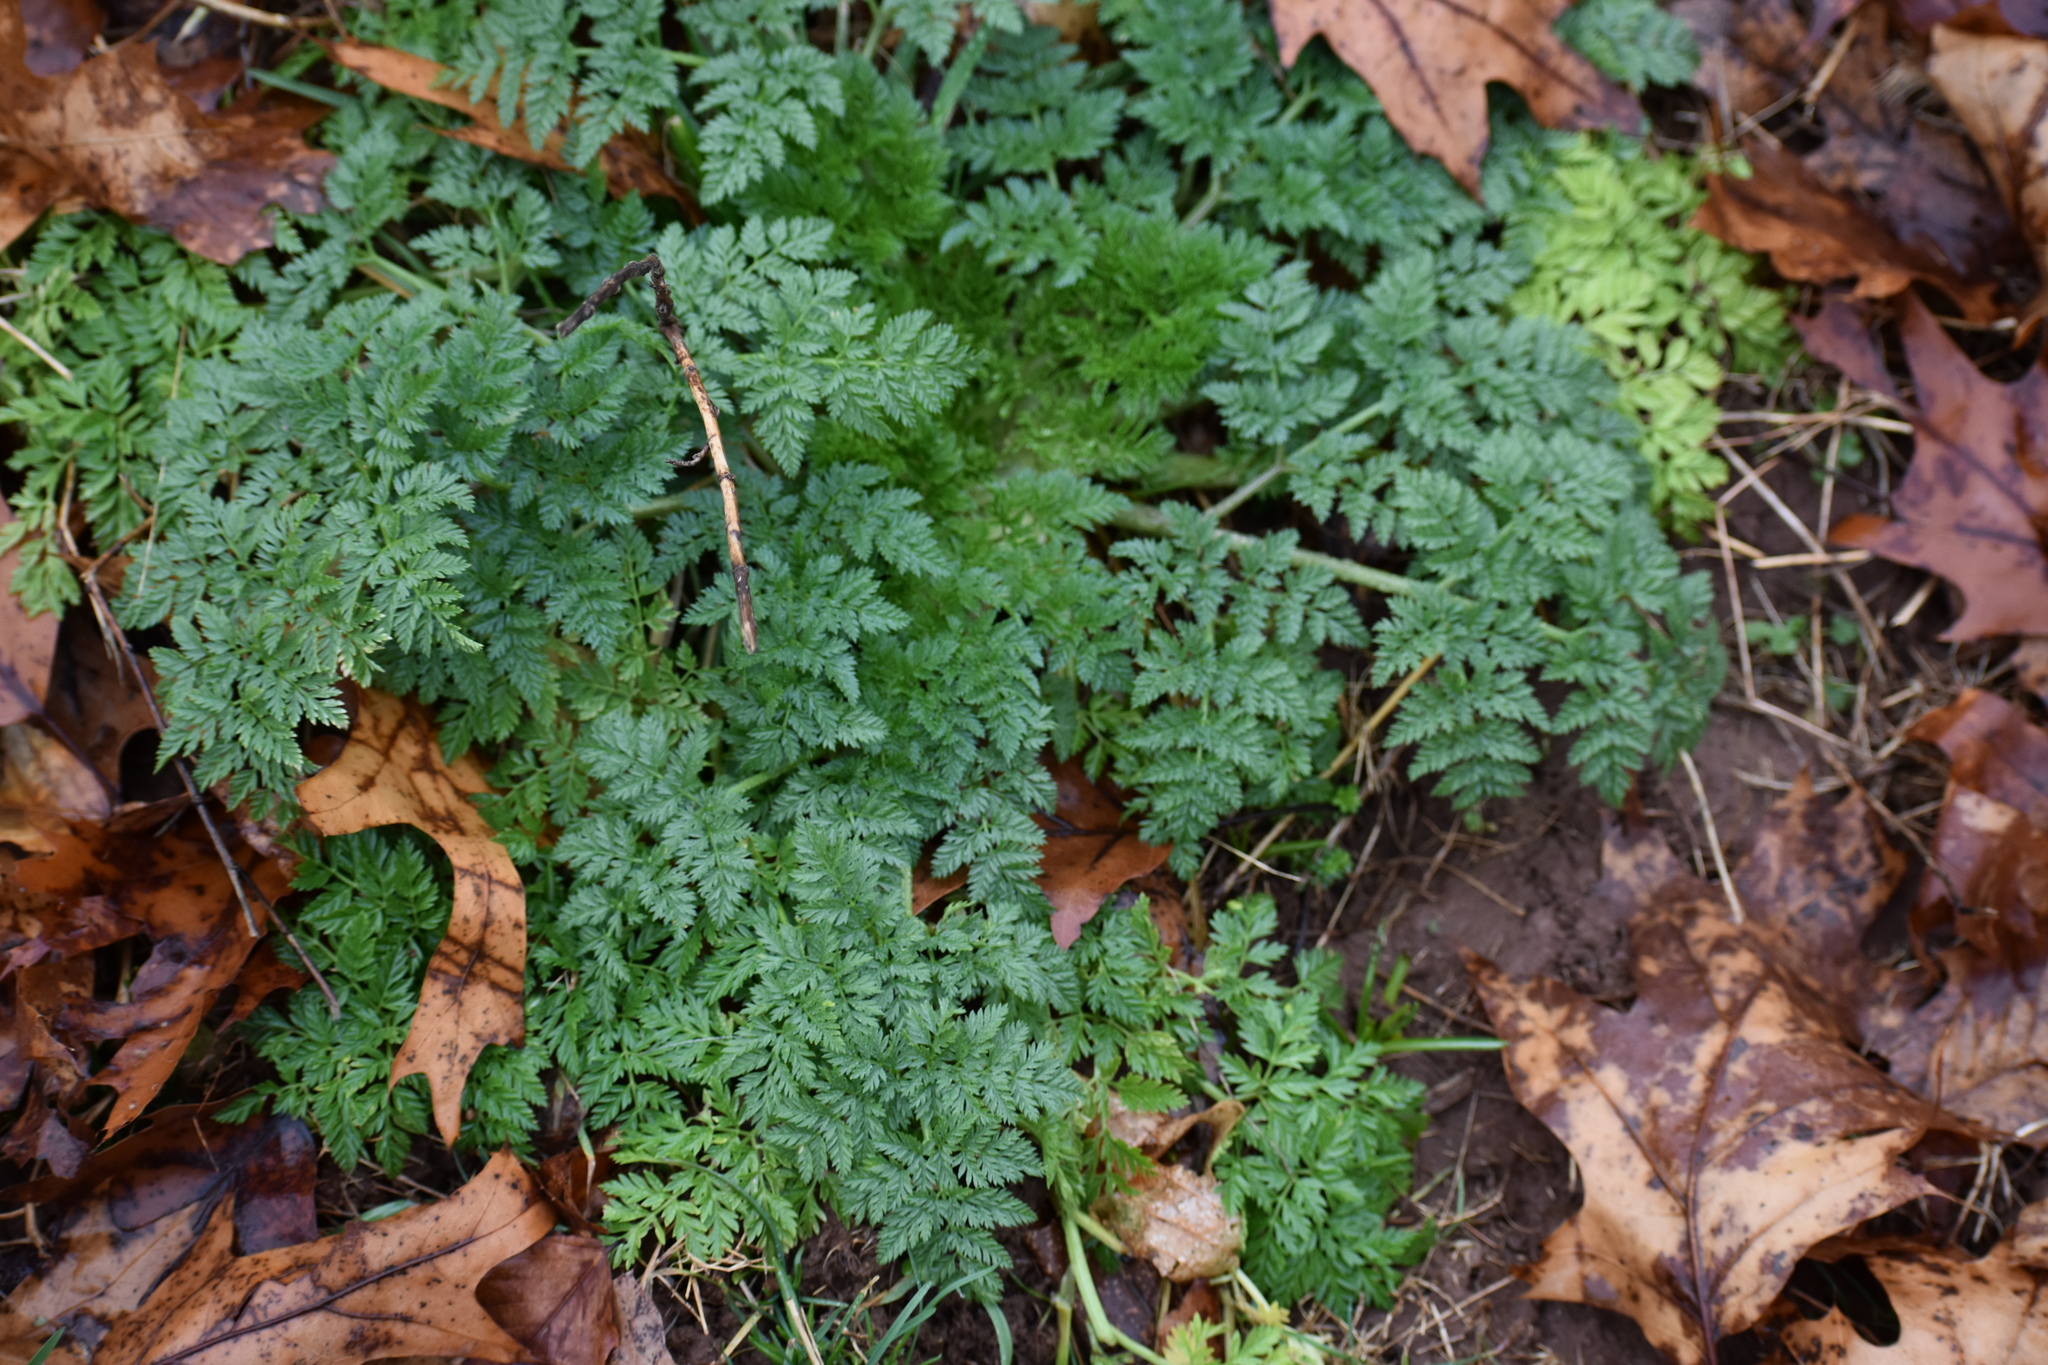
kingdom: Plantae
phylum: Tracheophyta
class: Magnoliopsida
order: Apiales
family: Apiaceae
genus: Conium
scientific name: Conium maculatum
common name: Hemlock
